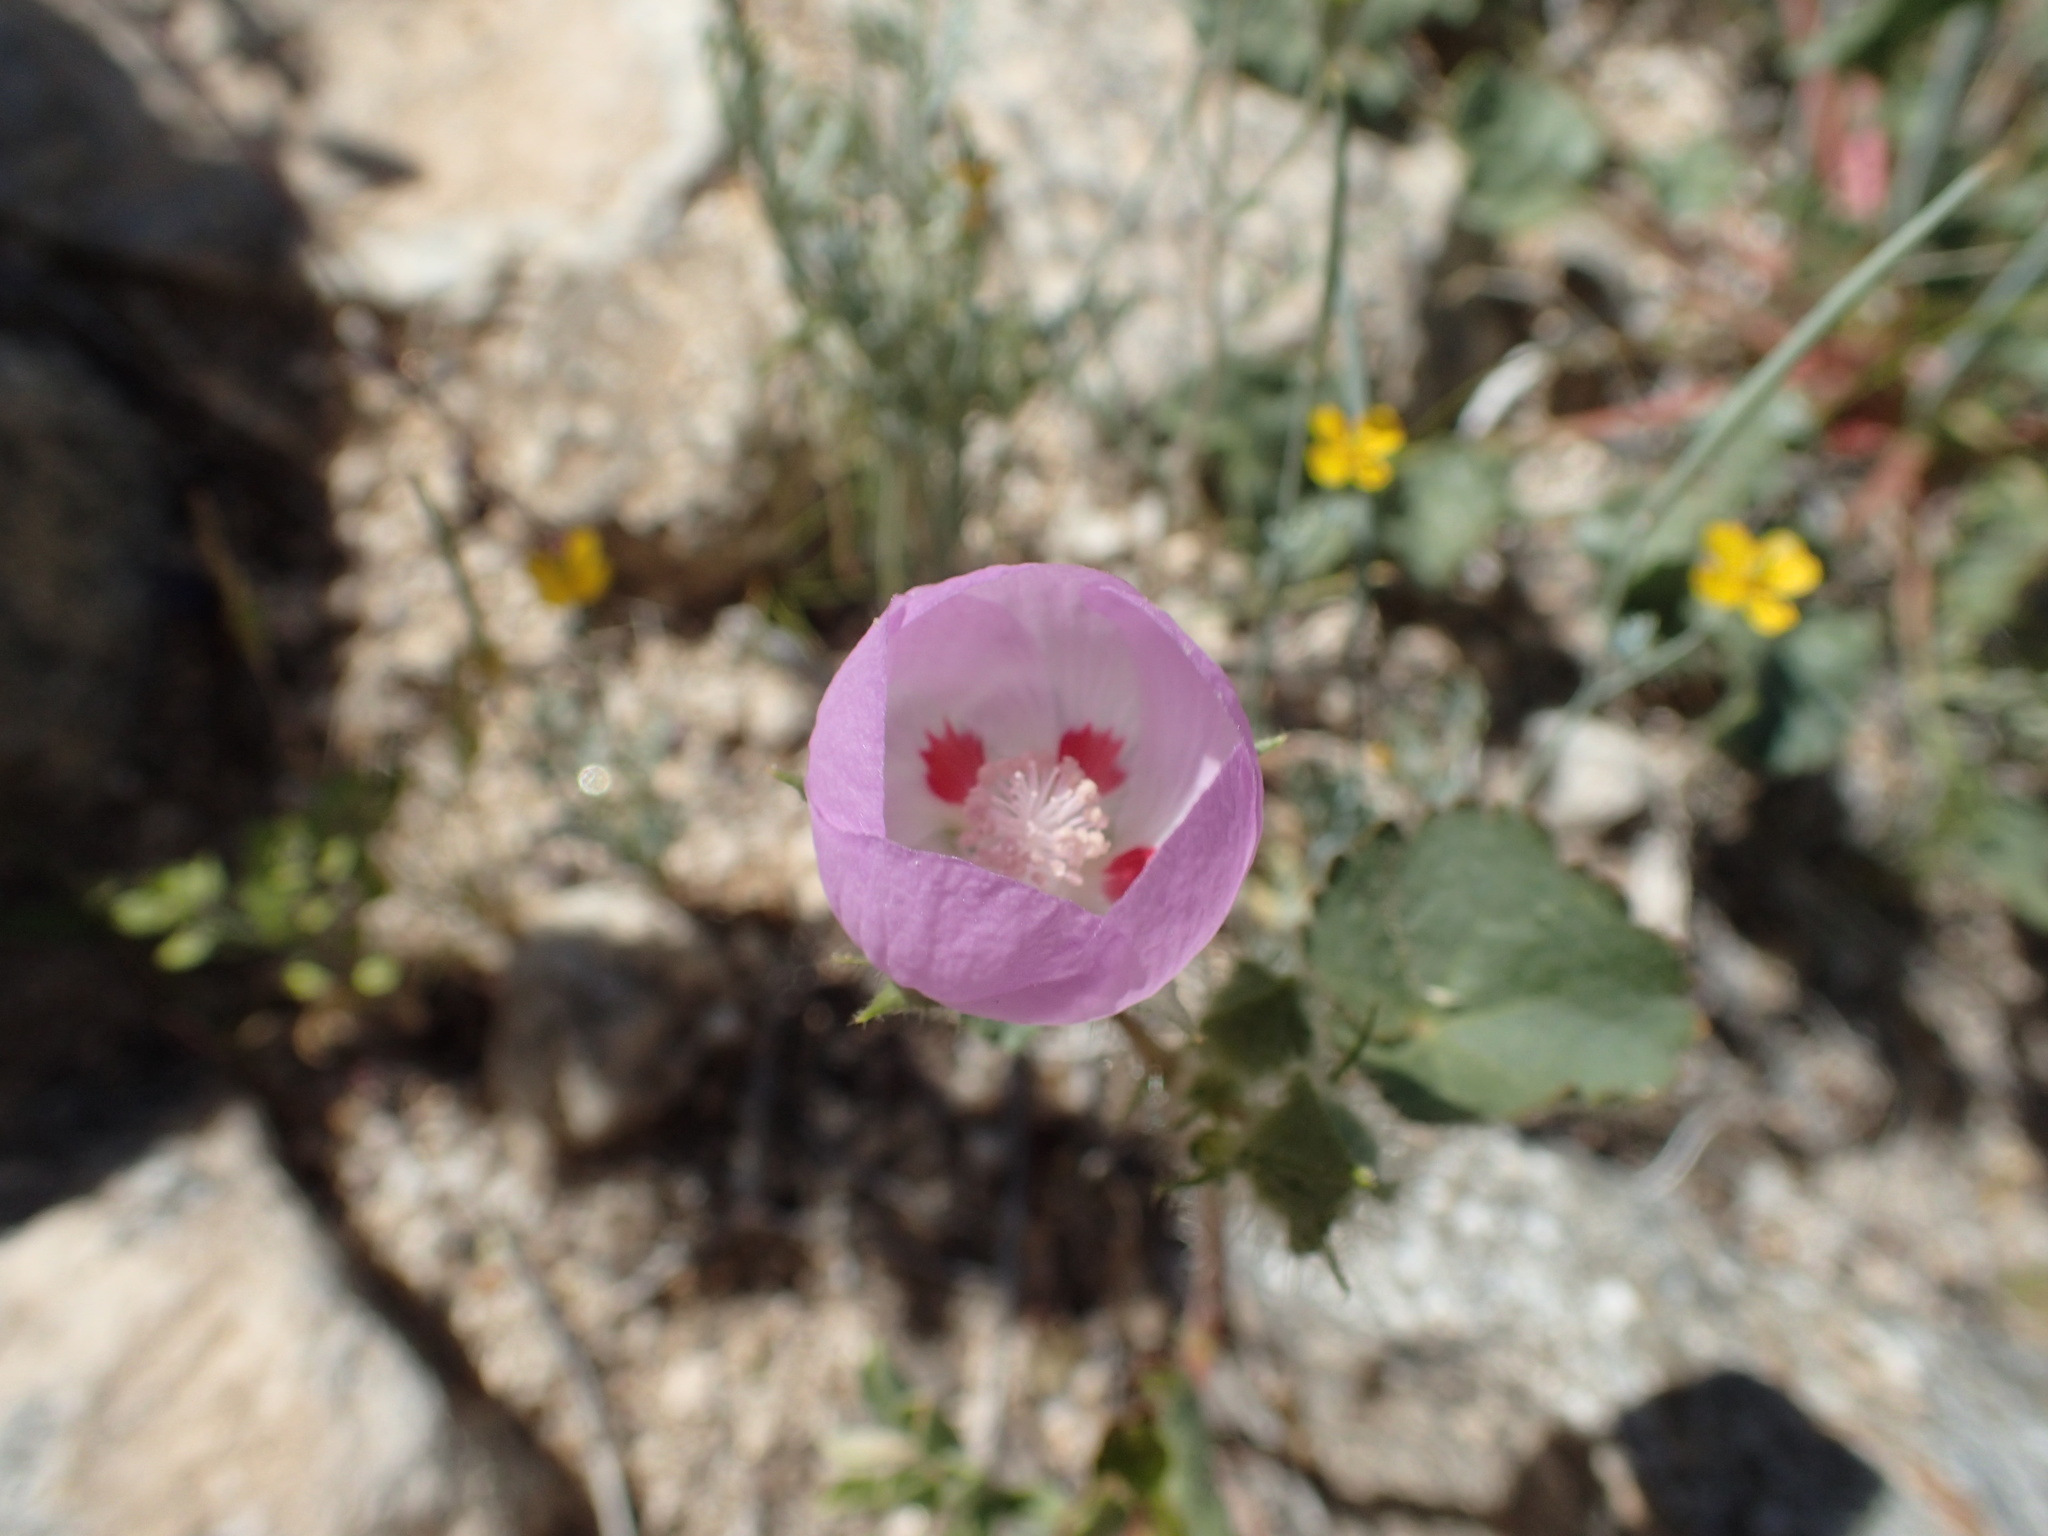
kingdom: Plantae
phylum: Tracheophyta
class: Magnoliopsida
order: Malvales
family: Malvaceae
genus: Eremalche
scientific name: Eremalche rotundifolia
